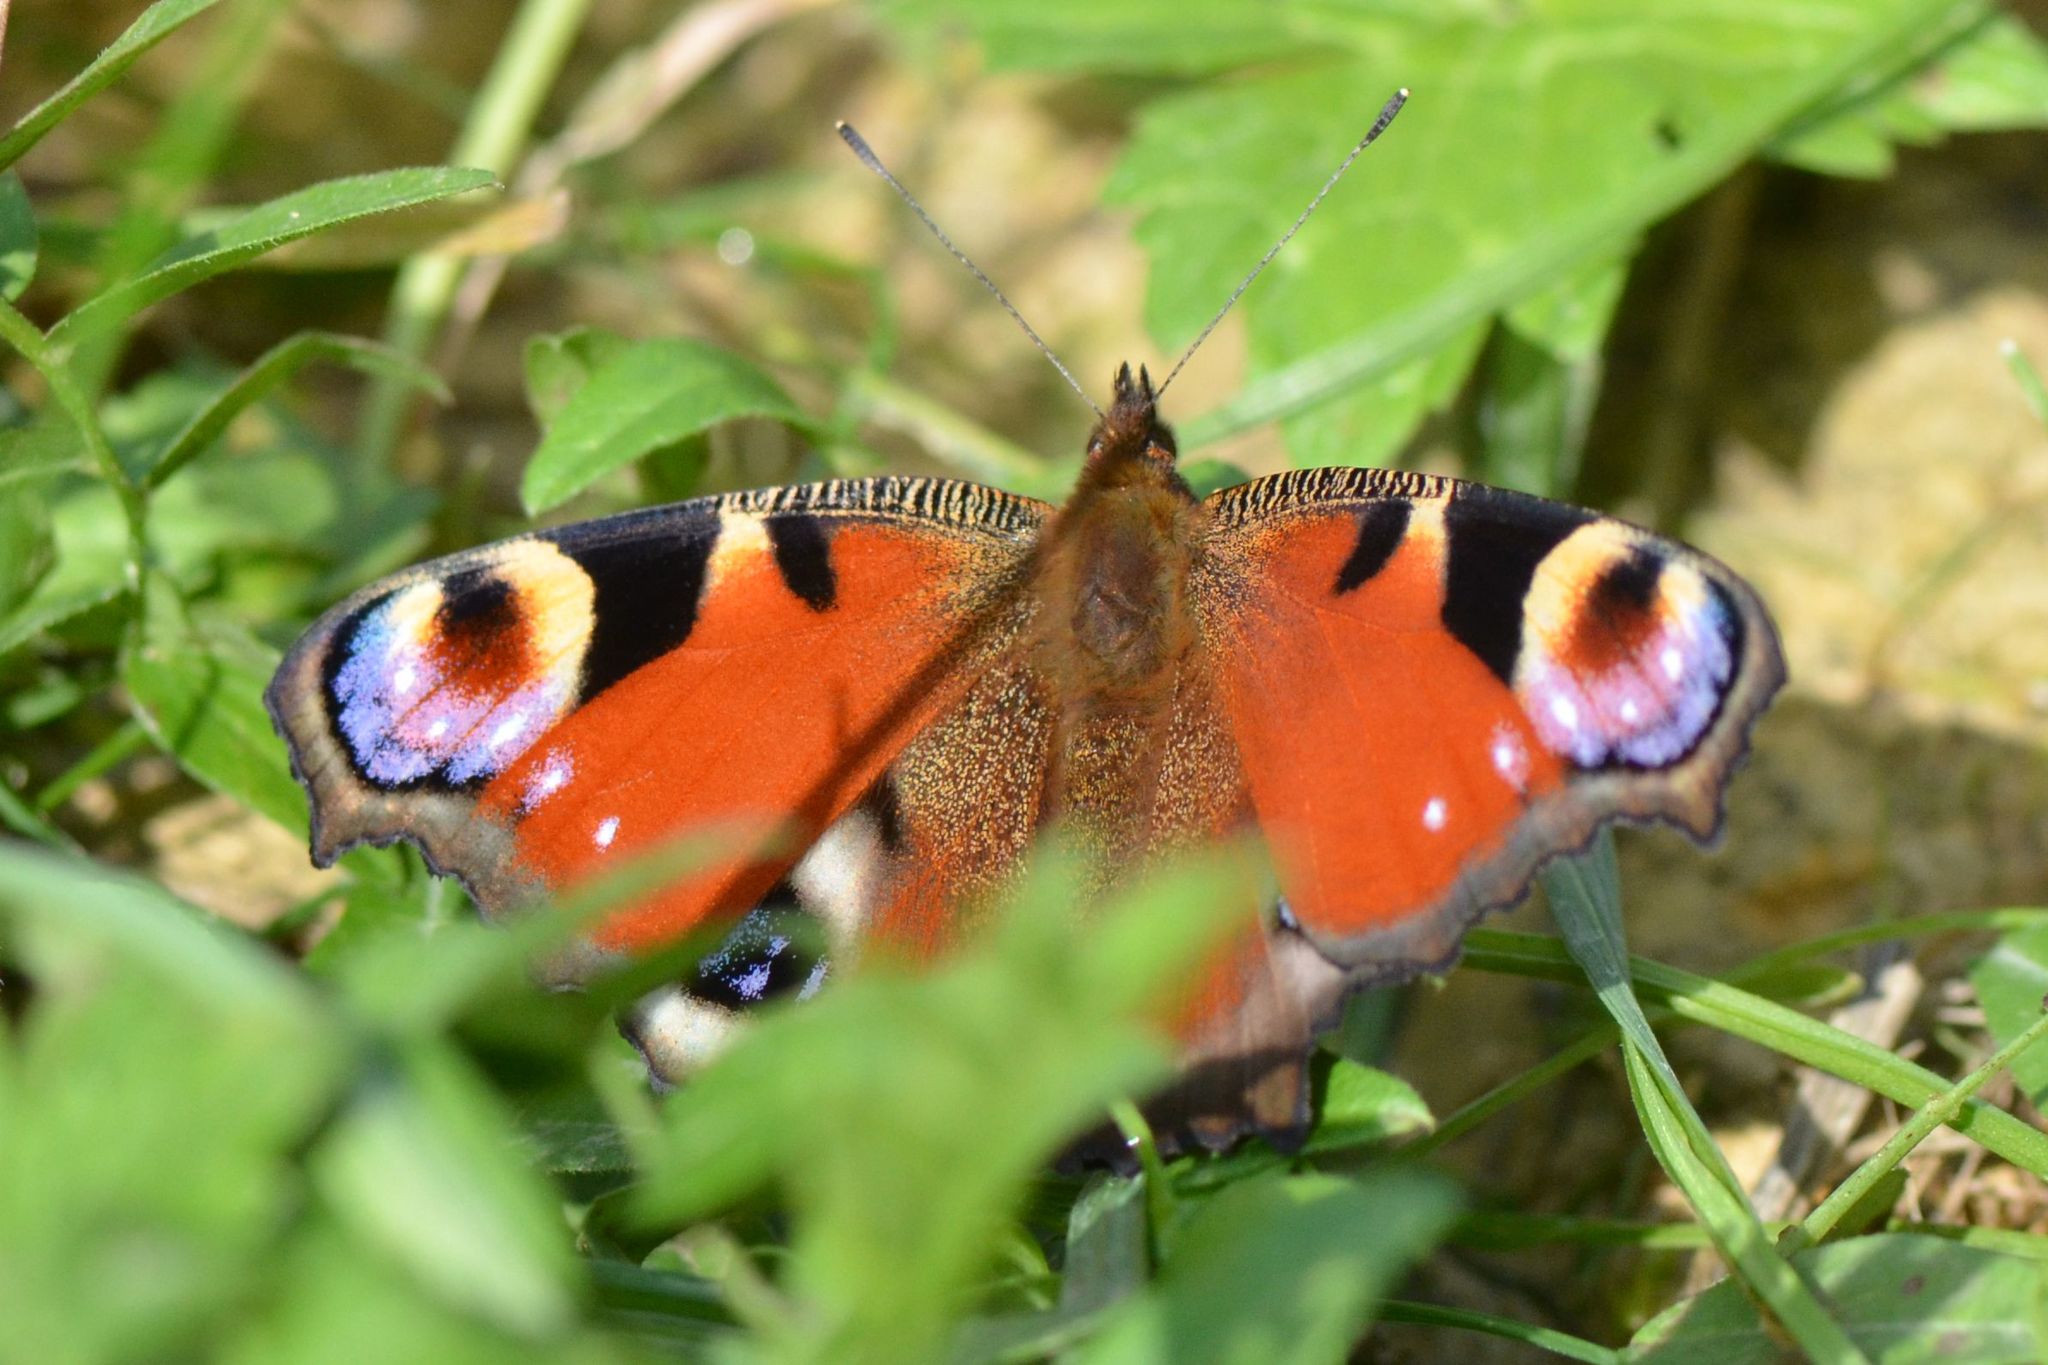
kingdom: Animalia
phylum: Arthropoda
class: Insecta
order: Lepidoptera
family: Nymphalidae
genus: Aglais
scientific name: Aglais io
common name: Peacock
